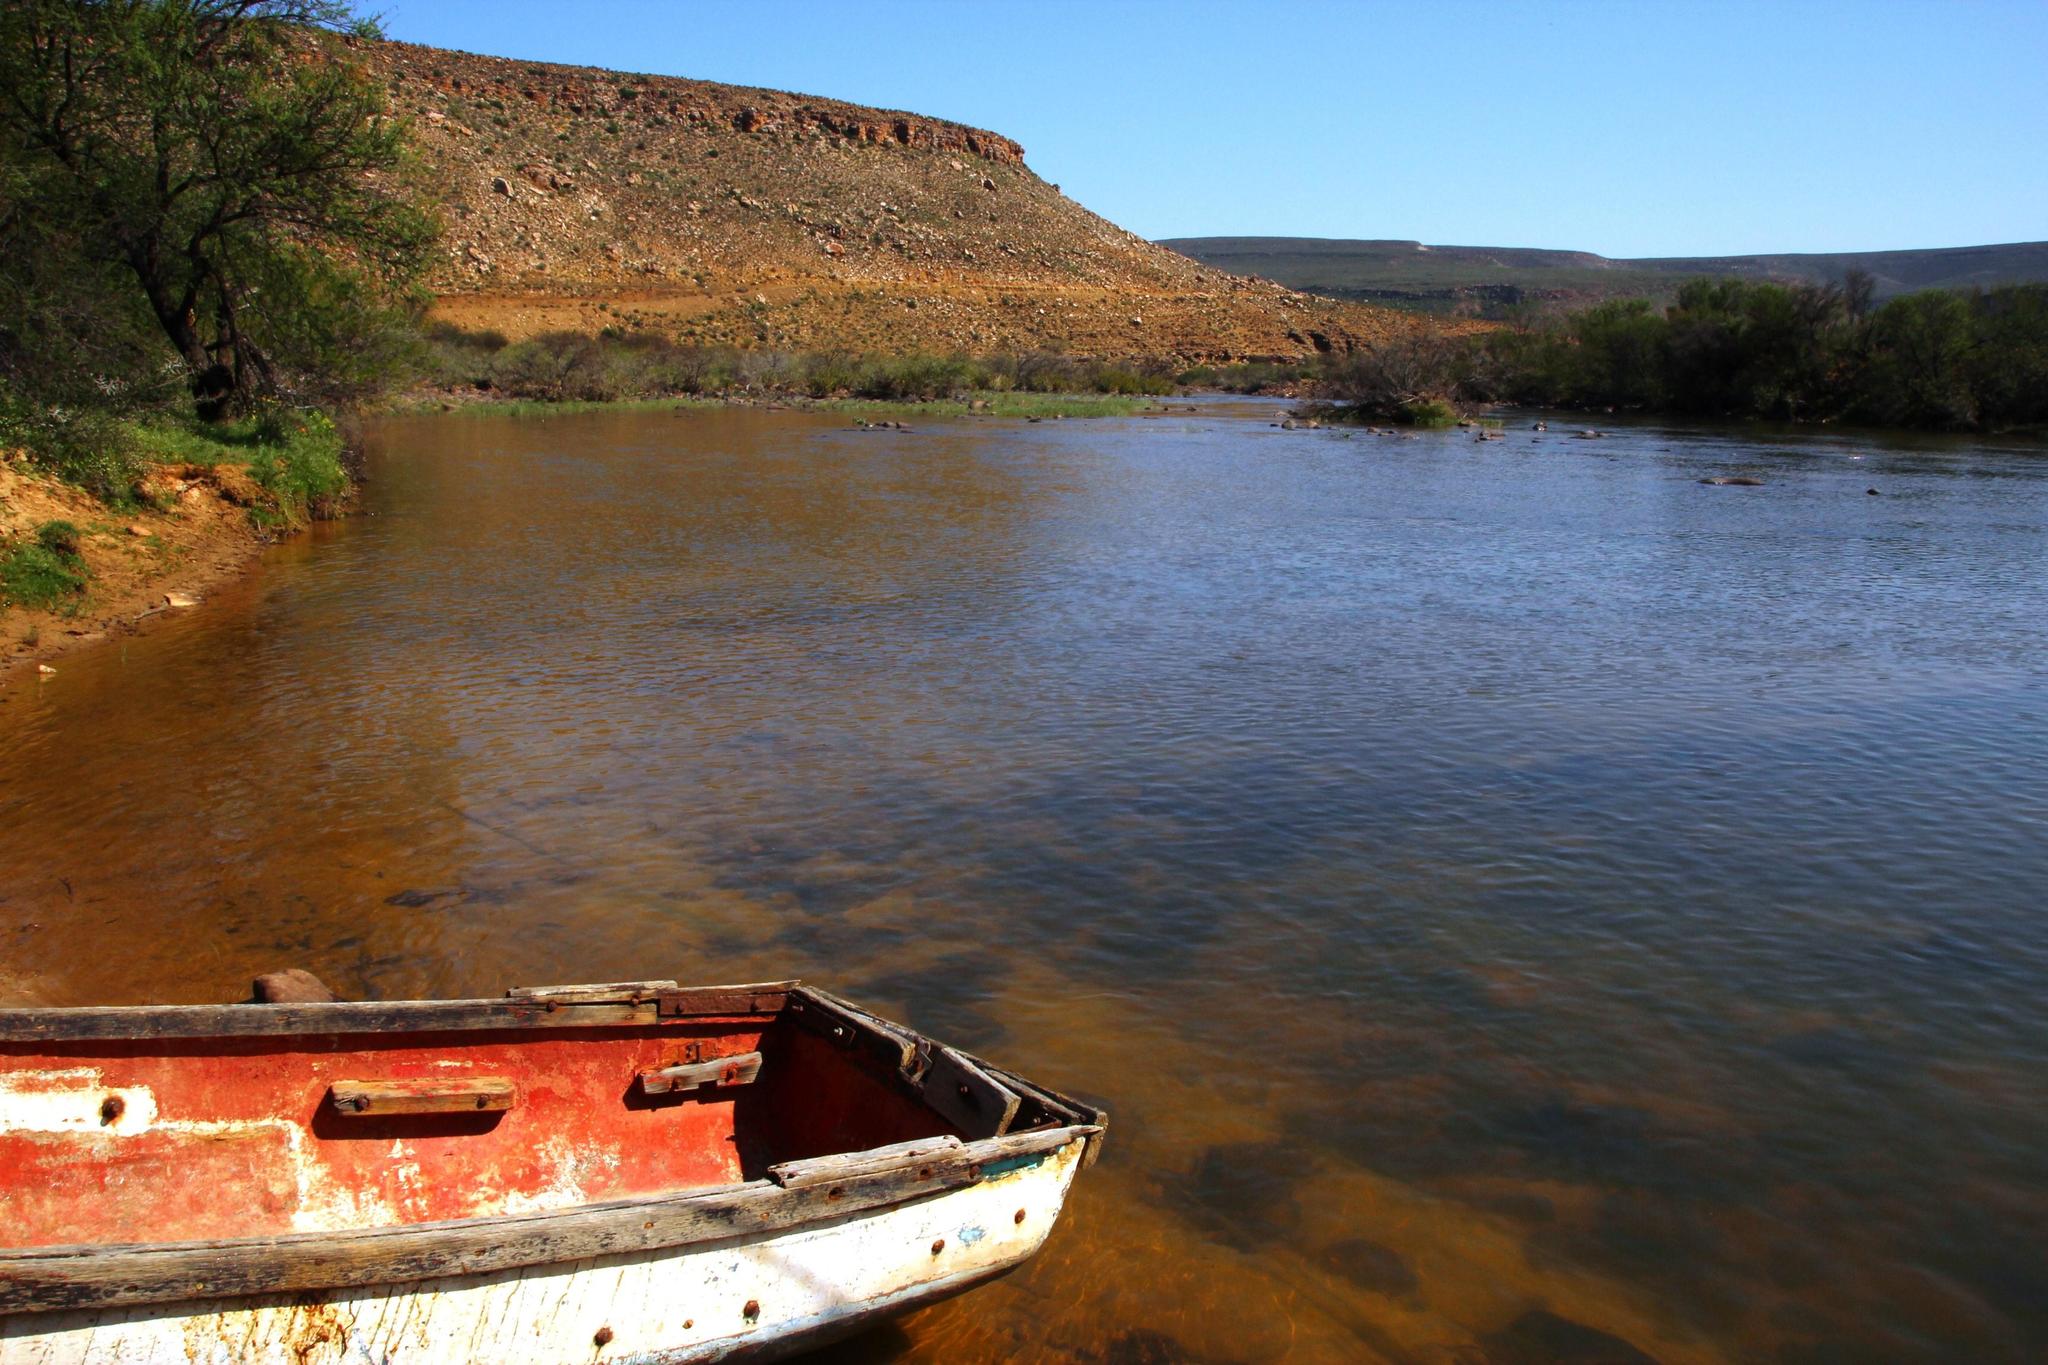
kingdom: Plantae
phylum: Tracheophyta
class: Magnoliopsida
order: Fabales
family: Fabaceae
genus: Vachellia
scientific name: Vachellia karroo
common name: Sweet thorn
